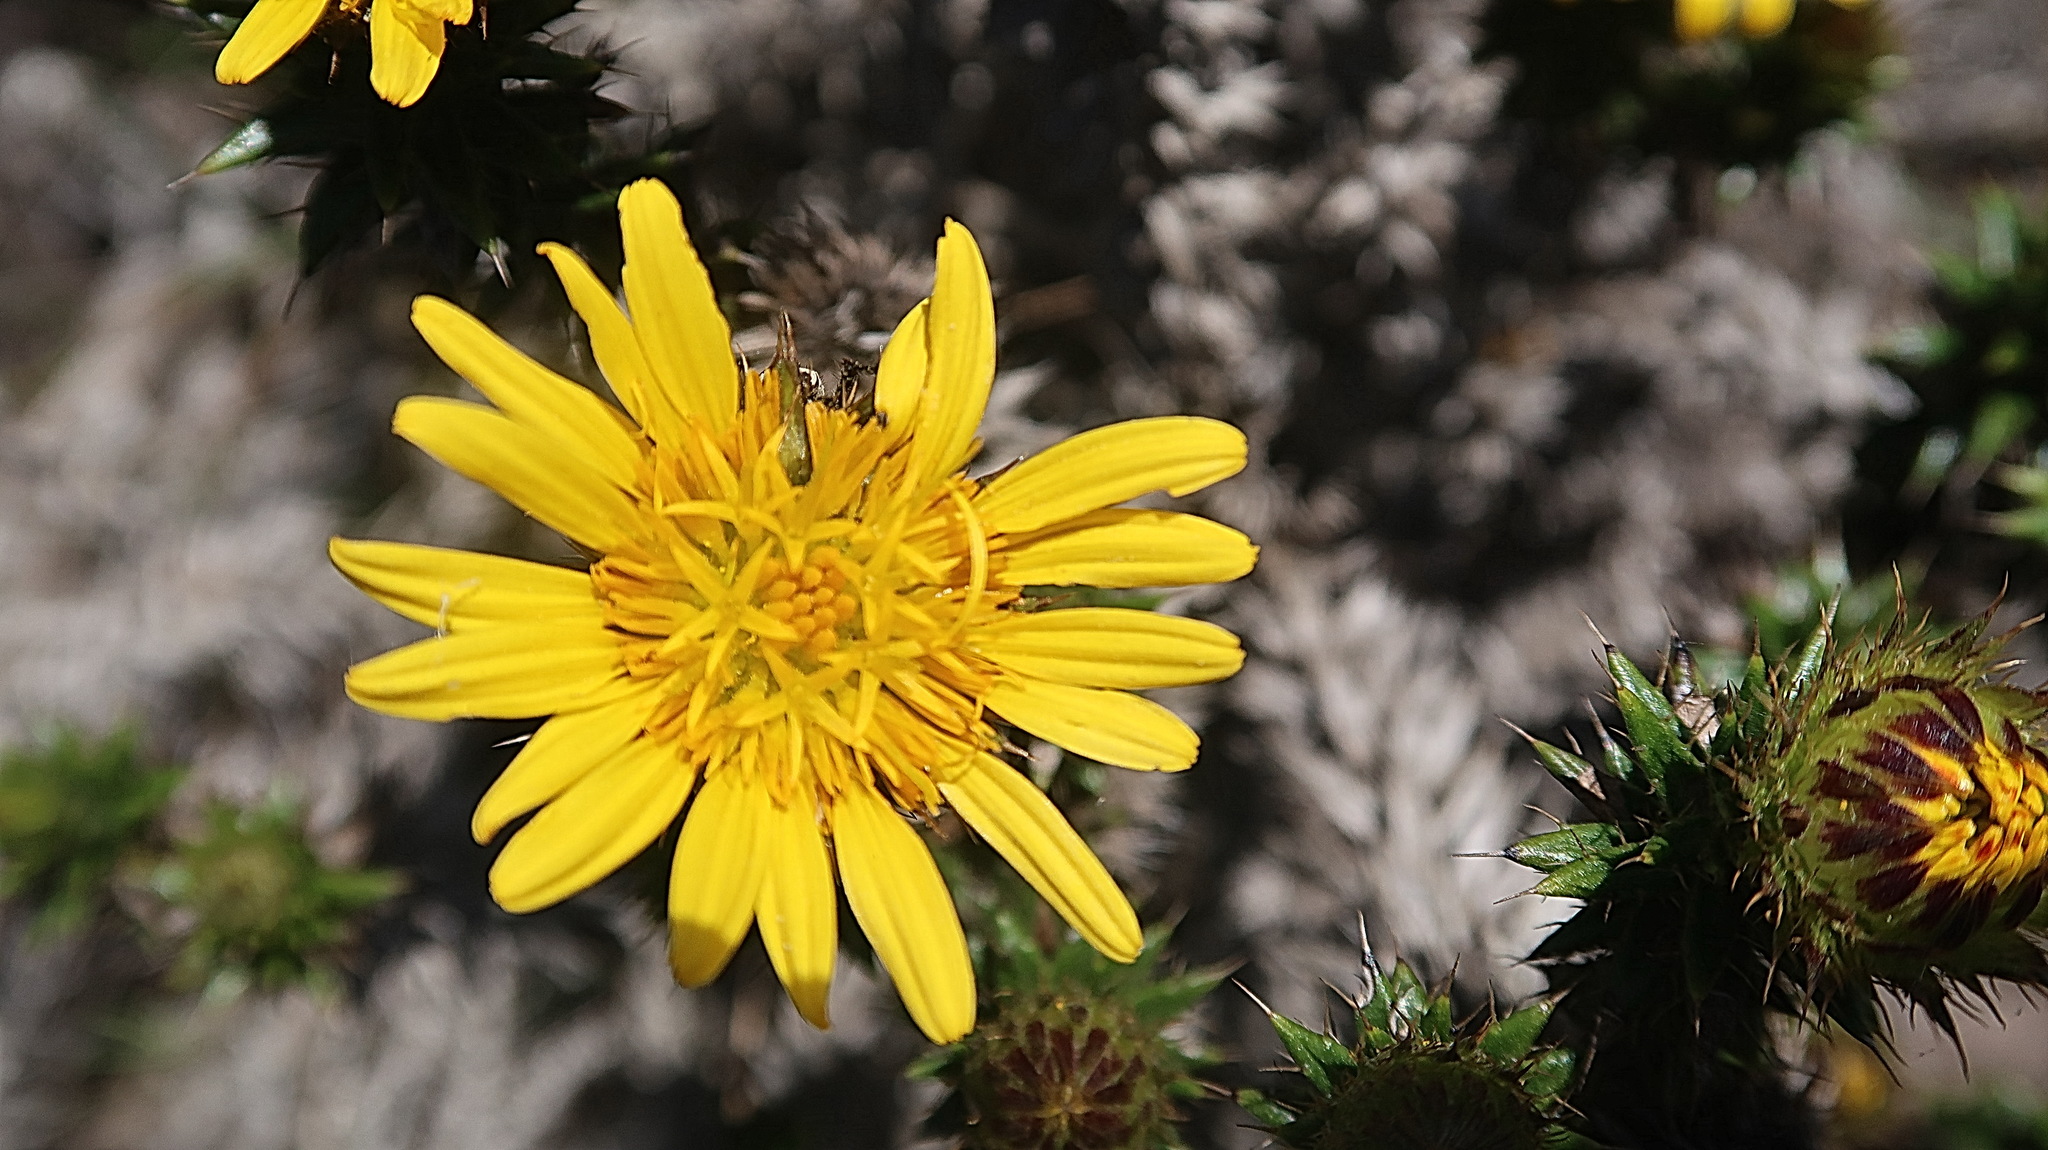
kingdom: Plantae
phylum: Tracheophyta
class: Magnoliopsida
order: Asterales
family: Asteraceae
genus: Cullumia
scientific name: Cullumia carlinoides
